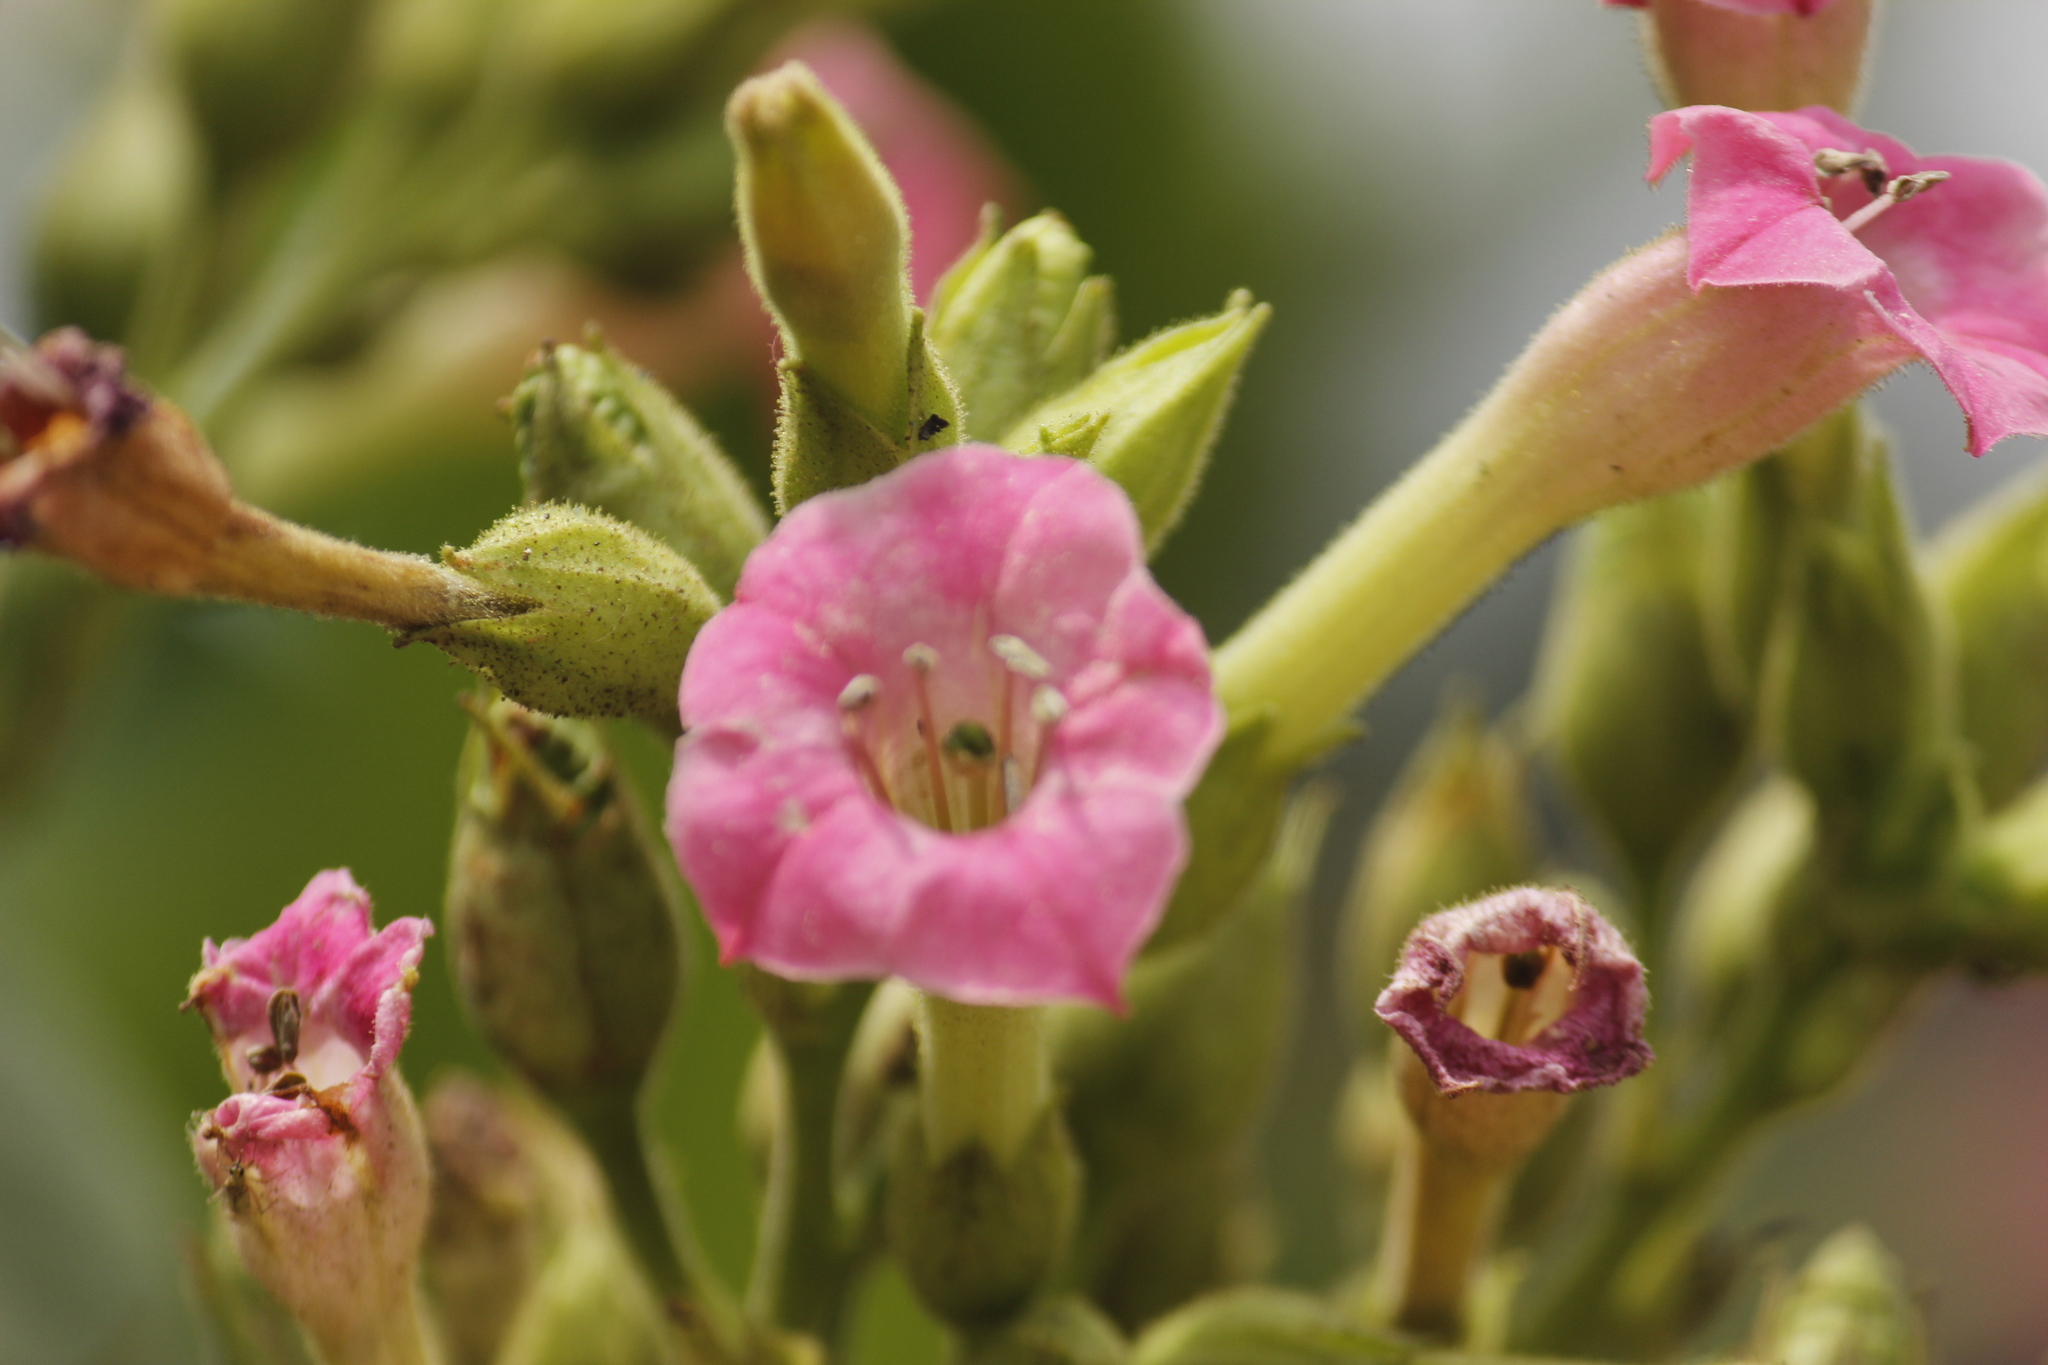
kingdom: Plantae
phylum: Tracheophyta
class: Magnoliopsida
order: Solanales
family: Solanaceae
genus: Nicotiana
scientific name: Nicotiana tabacum
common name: Tobacco
